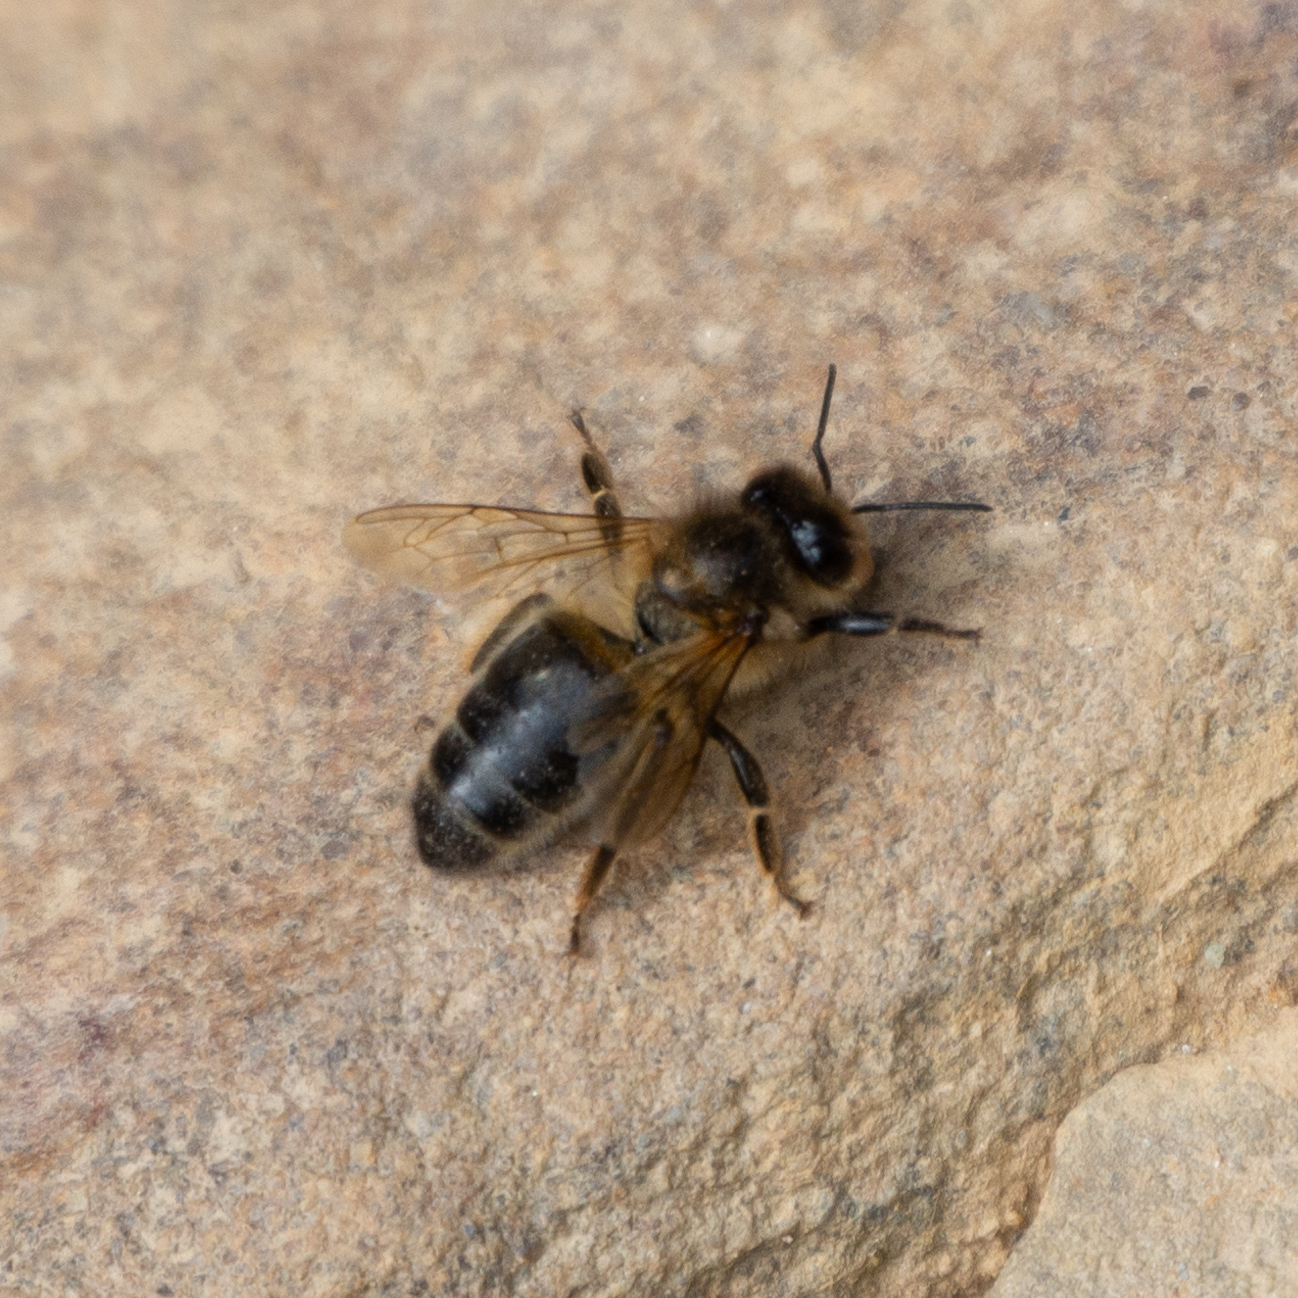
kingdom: Animalia
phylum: Arthropoda
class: Insecta
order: Hymenoptera
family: Apidae
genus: Apis
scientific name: Apis mellifera
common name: Honey bee
